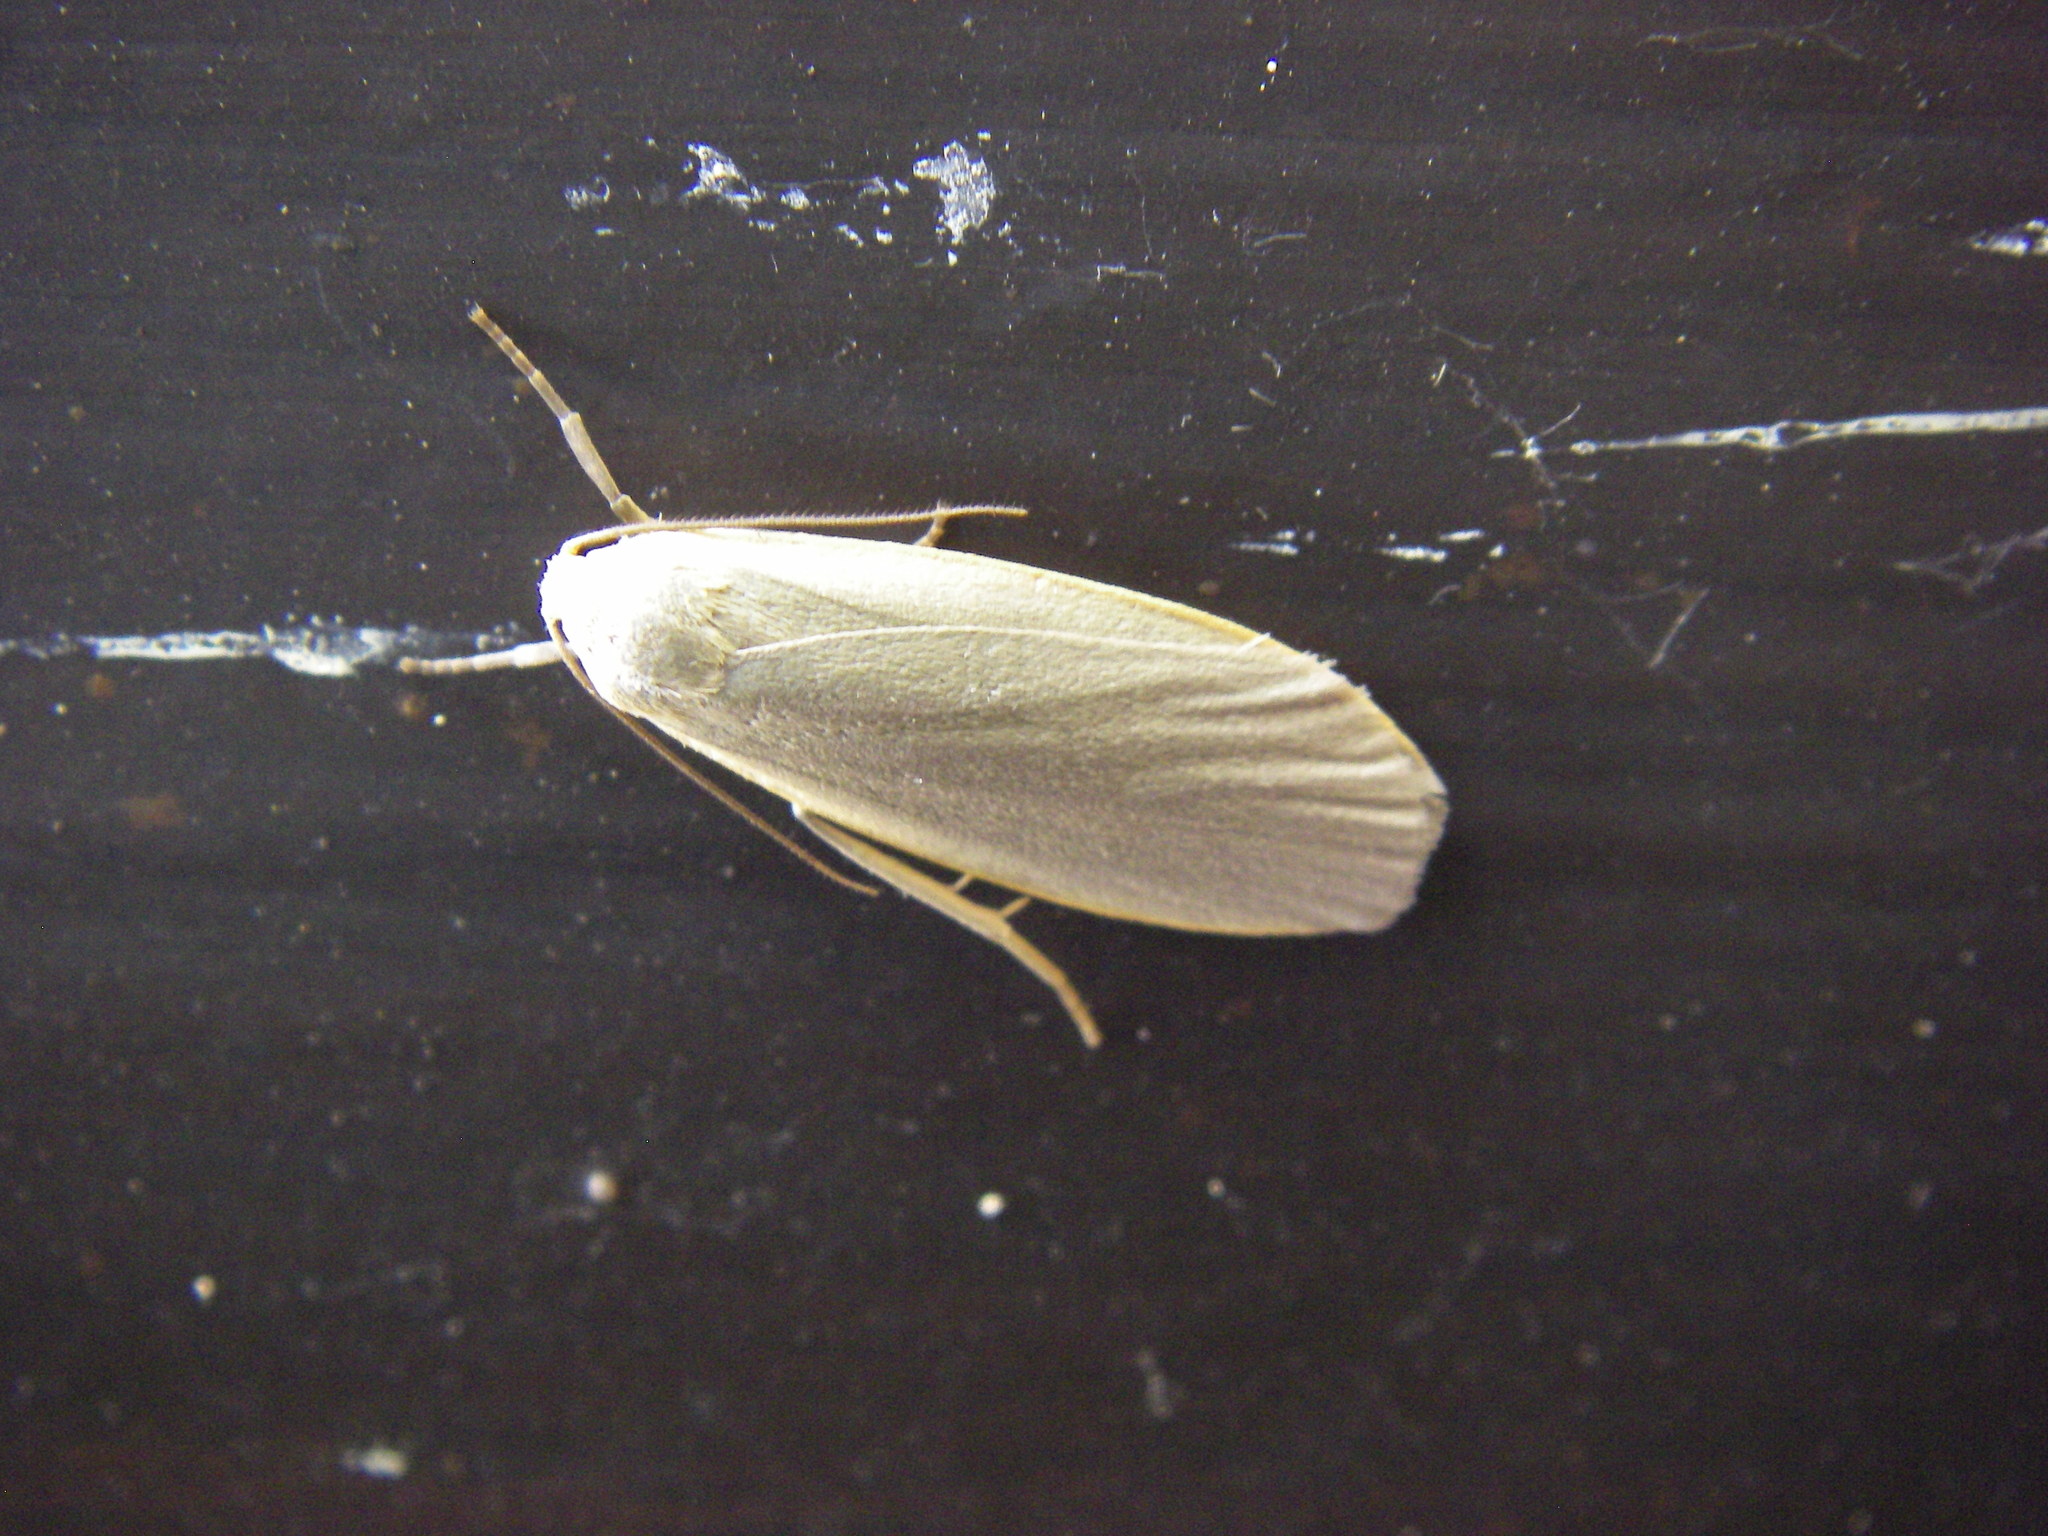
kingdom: Animalia
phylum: Arthropoda
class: Insecta
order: Lepidoptera
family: Erebidae
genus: Collita
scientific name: Collita griseola
